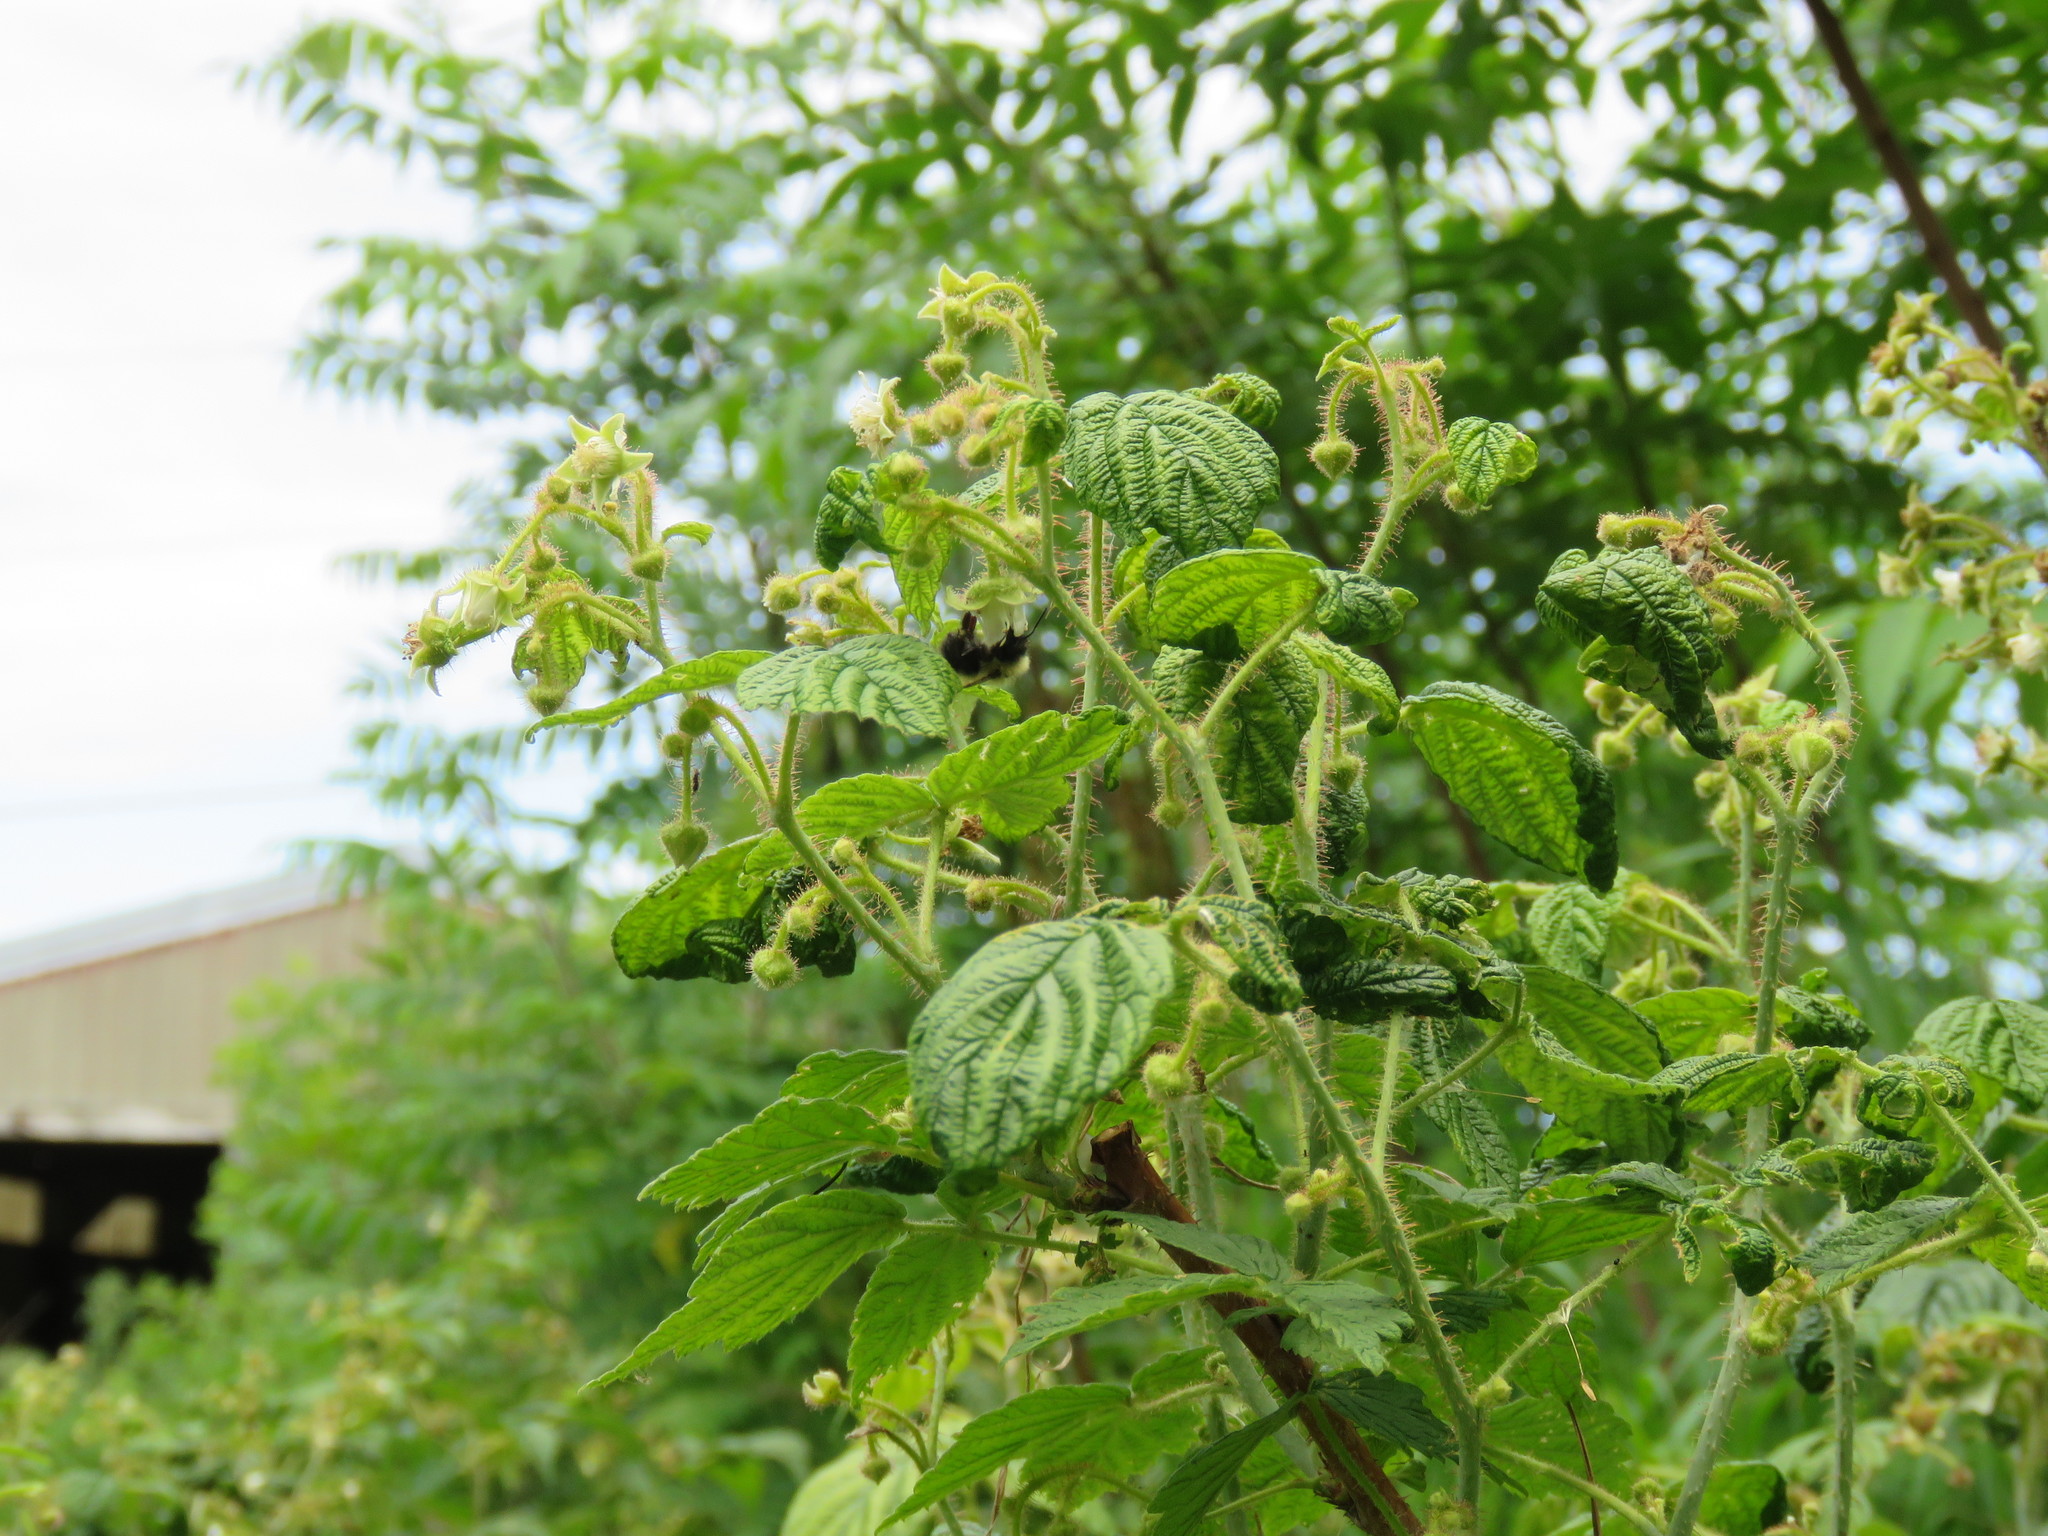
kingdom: Animalia
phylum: Arthropoda
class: Insecta
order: Hymenoptera
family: Apidae
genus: Bombus
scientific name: Bombus
